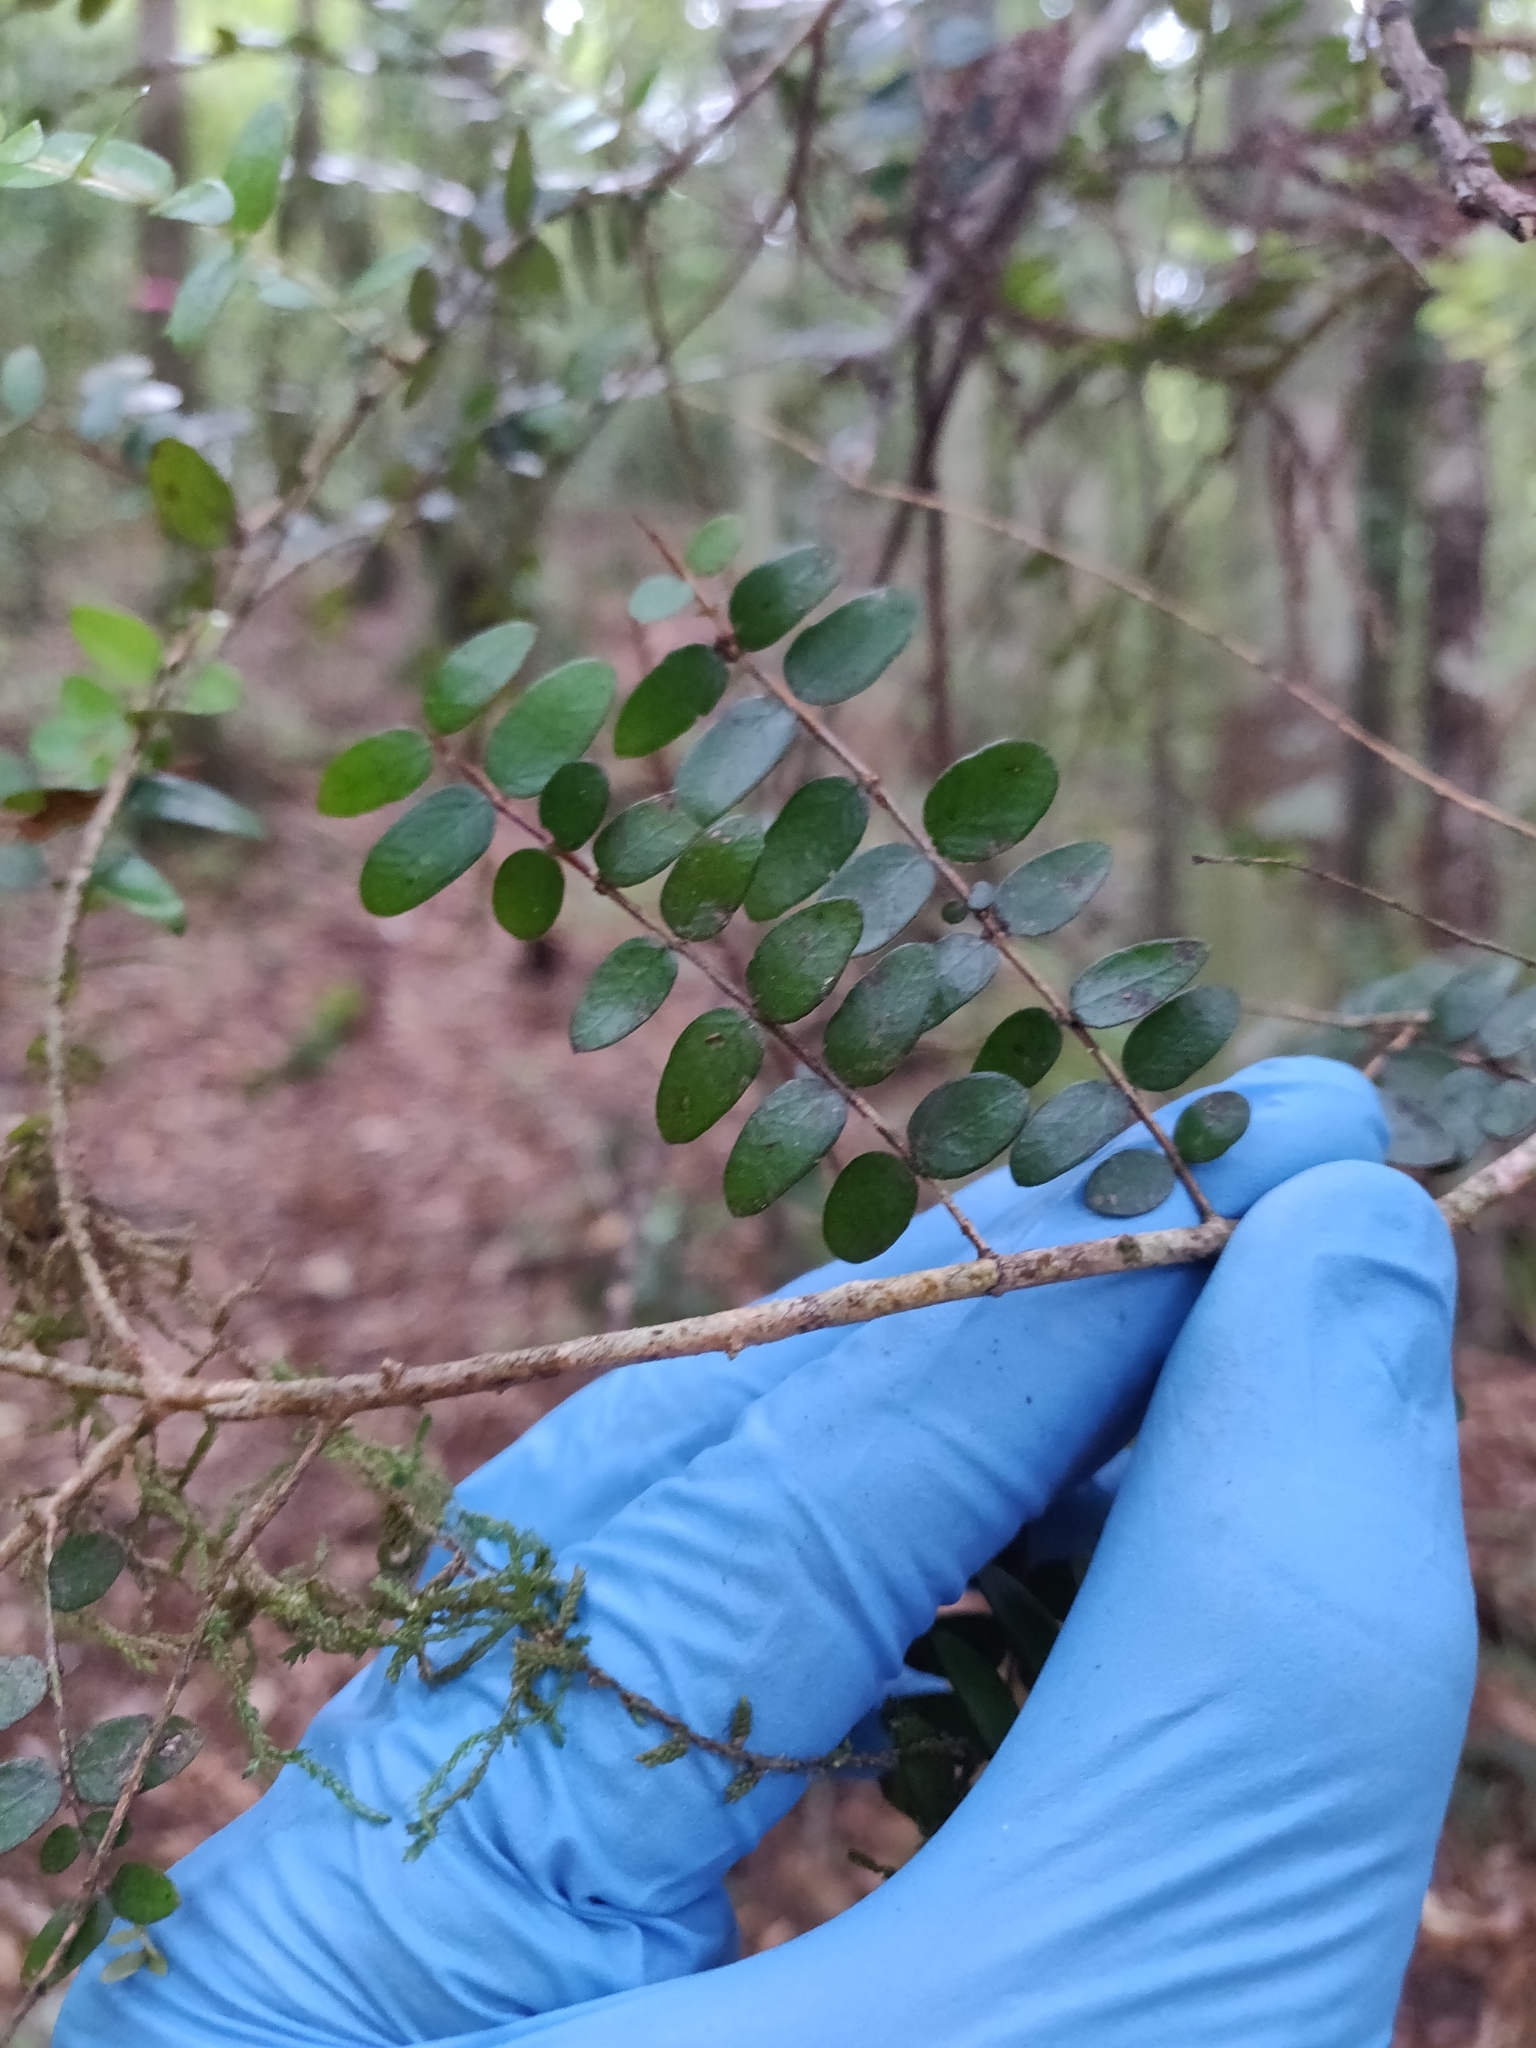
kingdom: Plantae
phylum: Tracheophyta
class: Magnoliopsida
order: Myrtales
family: Myrtaceae
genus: Metrosideros
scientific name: Metrosideros diffusa
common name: Small ratavine
